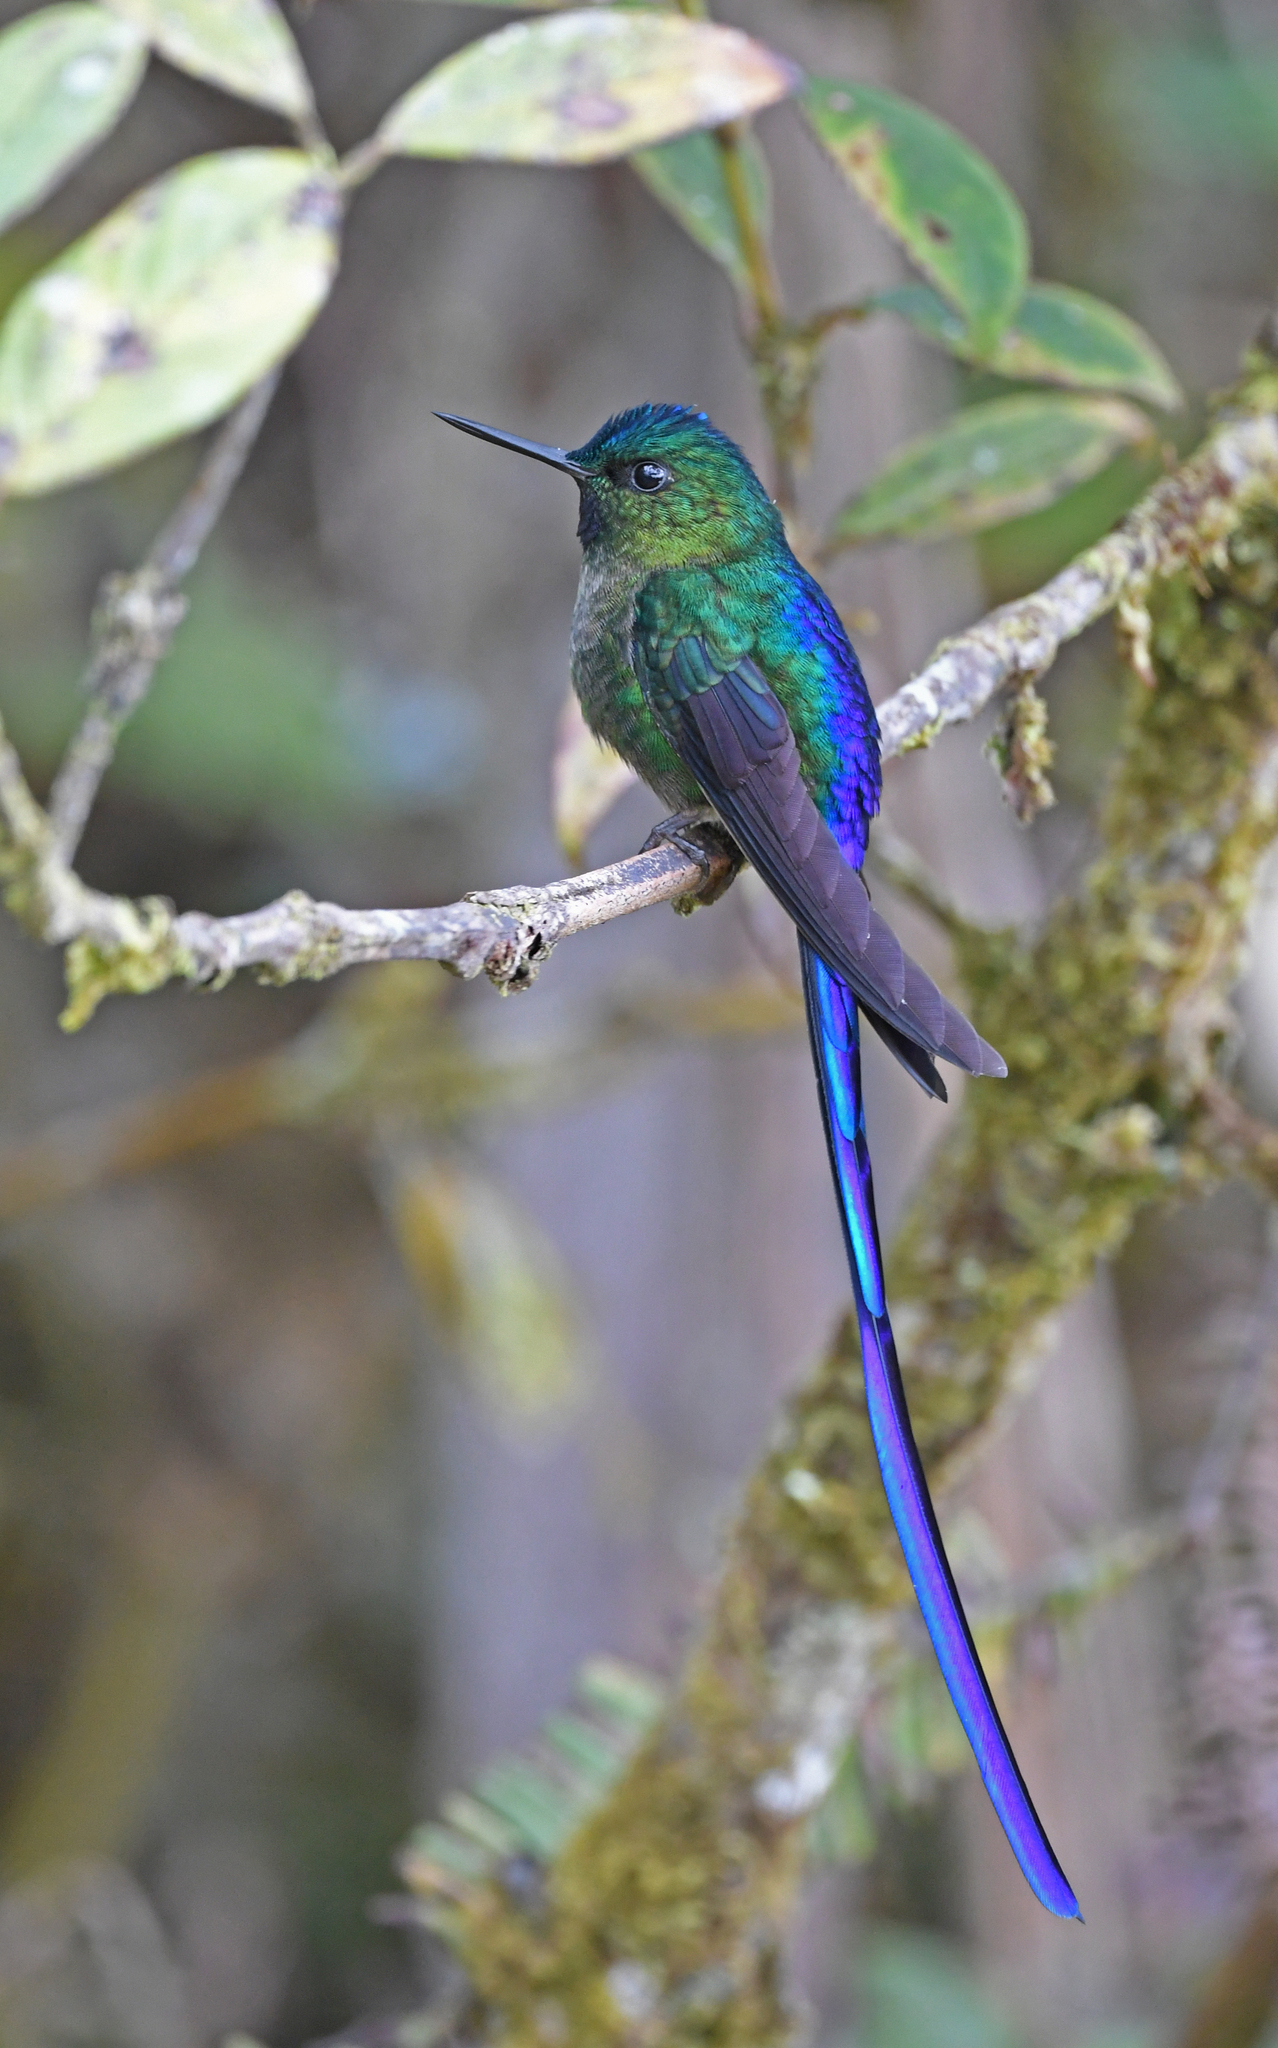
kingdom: Animalia
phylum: Chordata
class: Aves
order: Apodiformes
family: Trochilidae
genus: Aglaiocercus
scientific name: Aglaiocercus coelestis
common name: Violet-tailed sylph
